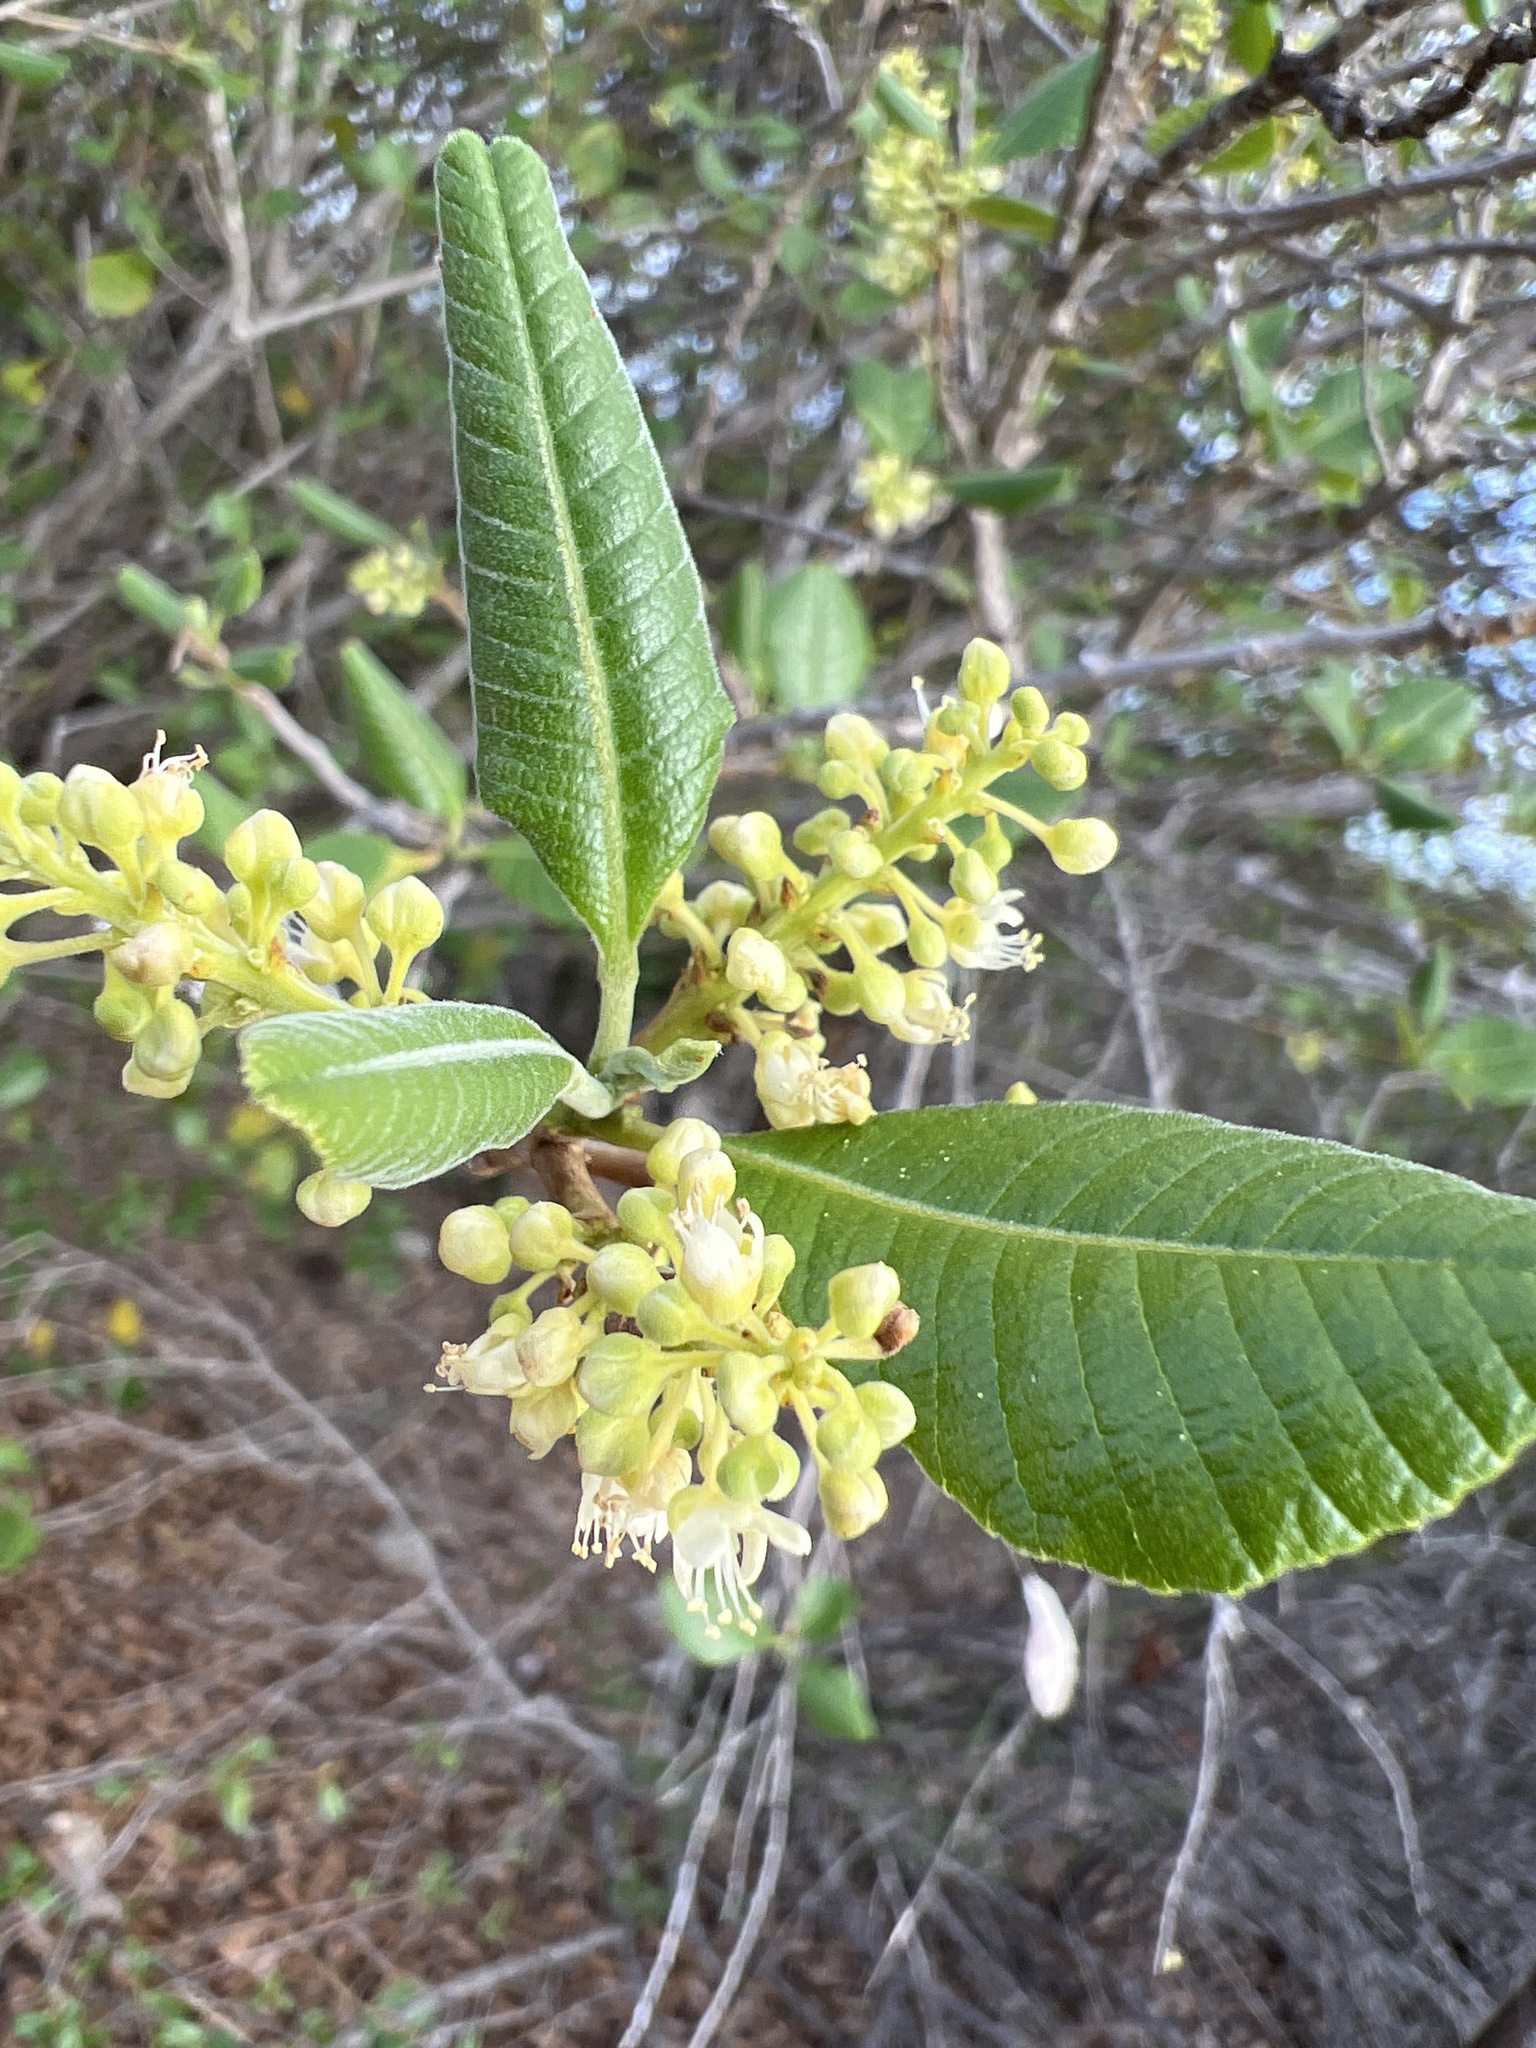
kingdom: Plantae
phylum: Tracheophyta
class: Magnoliopsida
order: Sapindales
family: Sapindaceae
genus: Thouinia
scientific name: Thouinia striata
